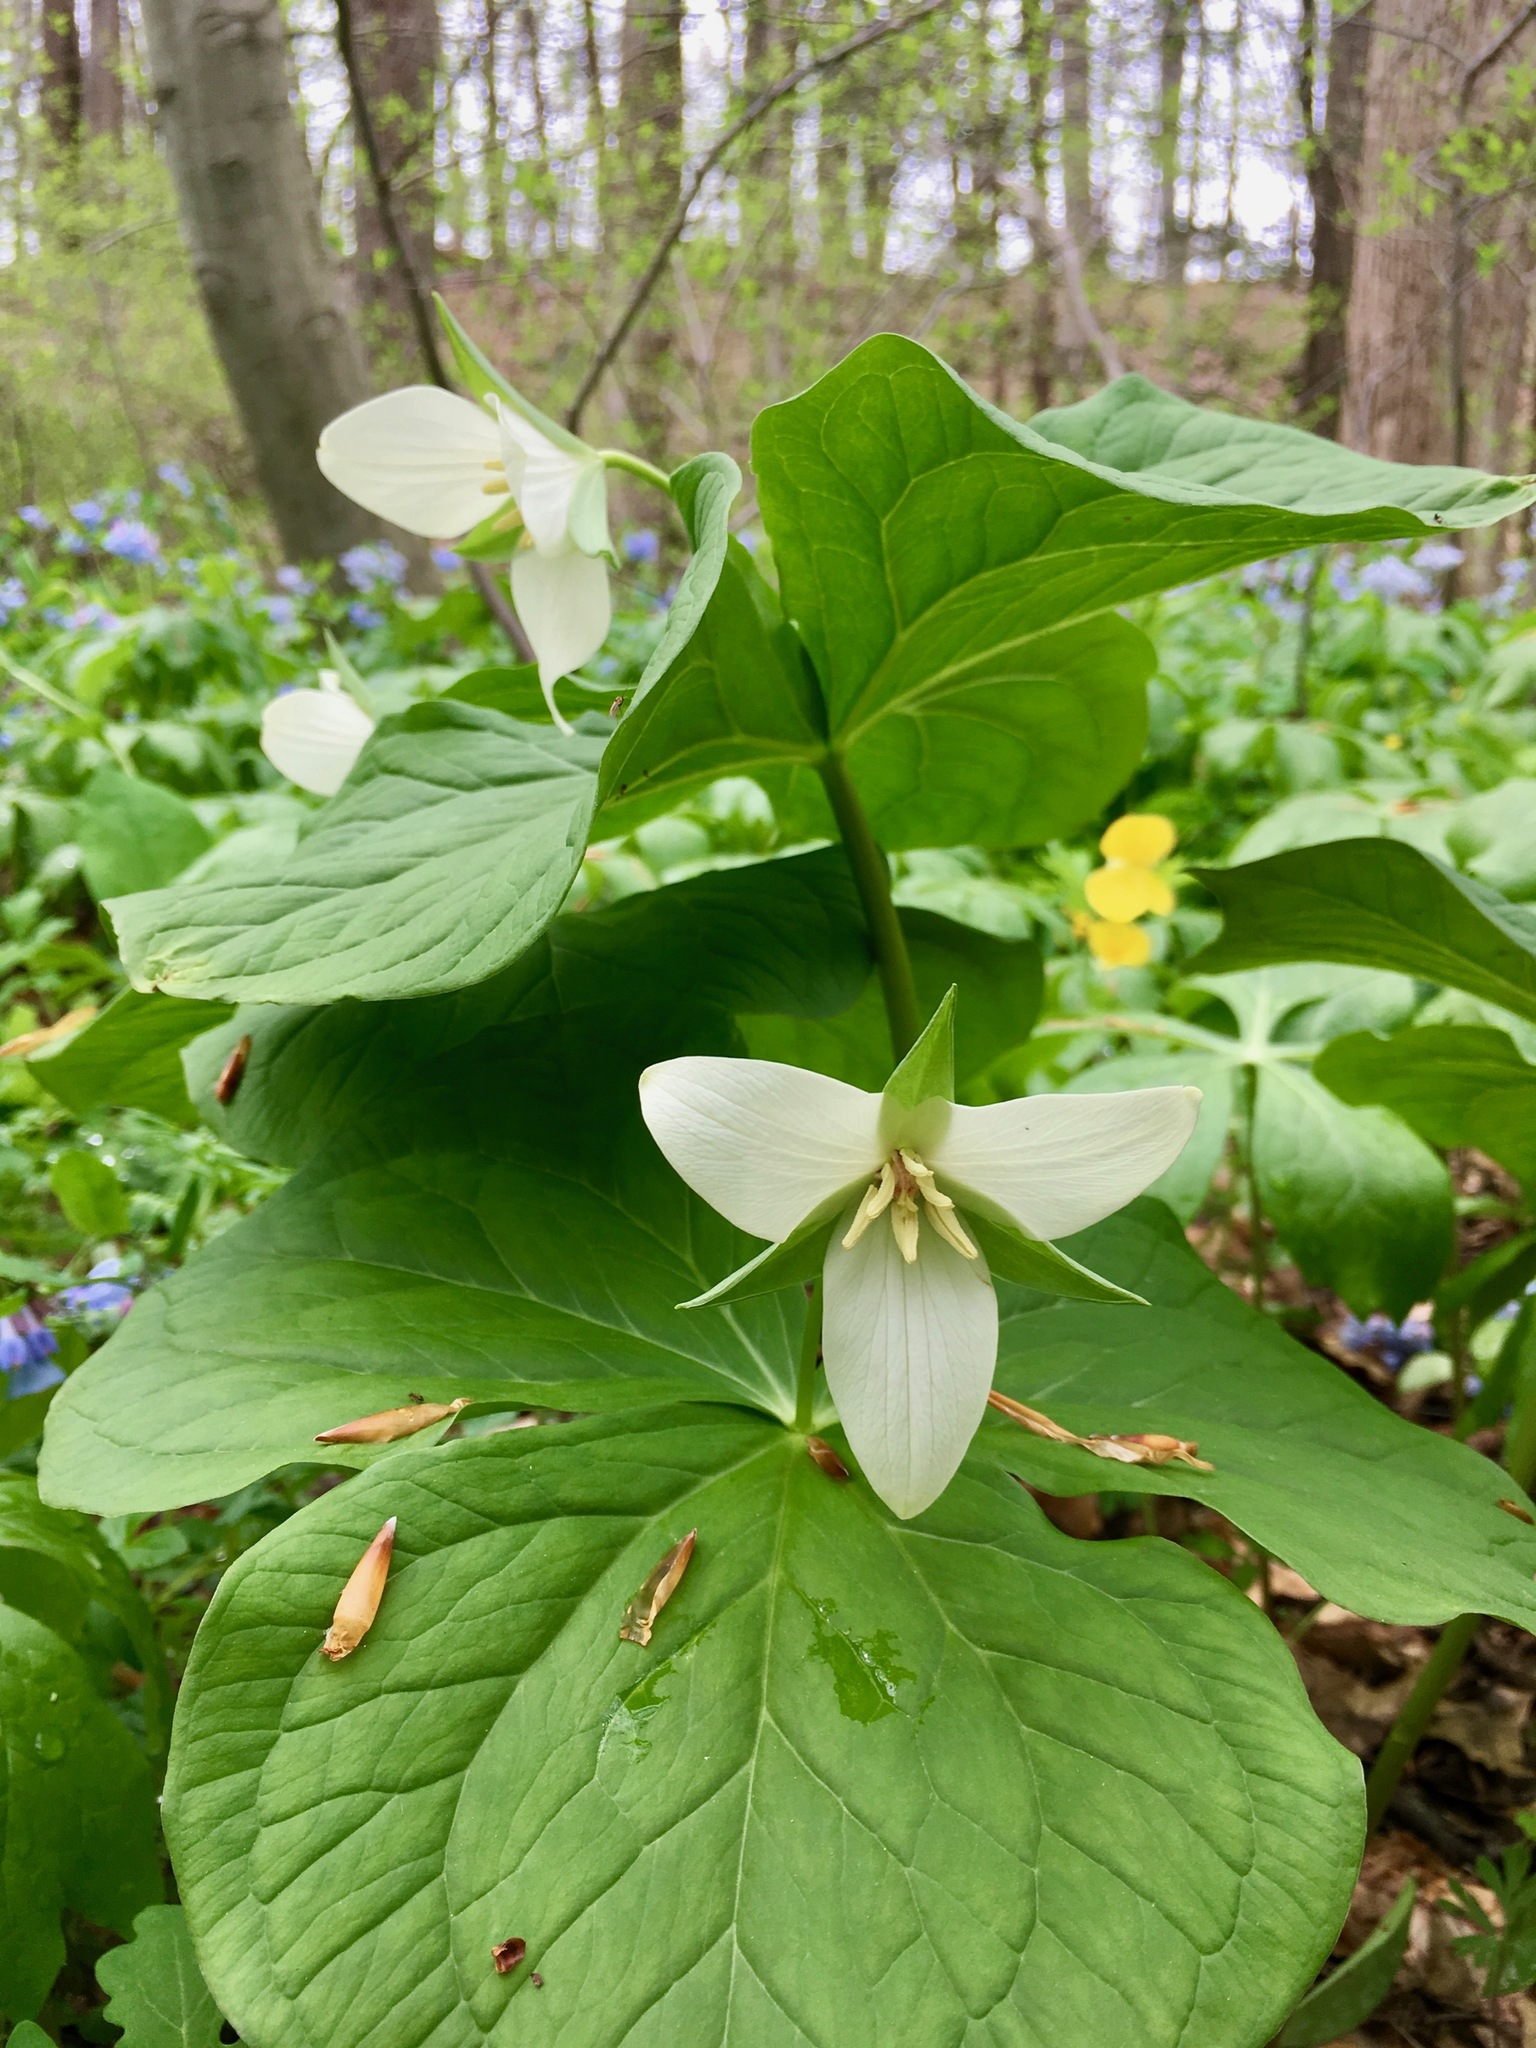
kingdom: Plantae
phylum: Tracheophyta
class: Liliopsida
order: Liliales
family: Melanthiaceae
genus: Trillium
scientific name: Trillium erectum
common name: Purple trillium
